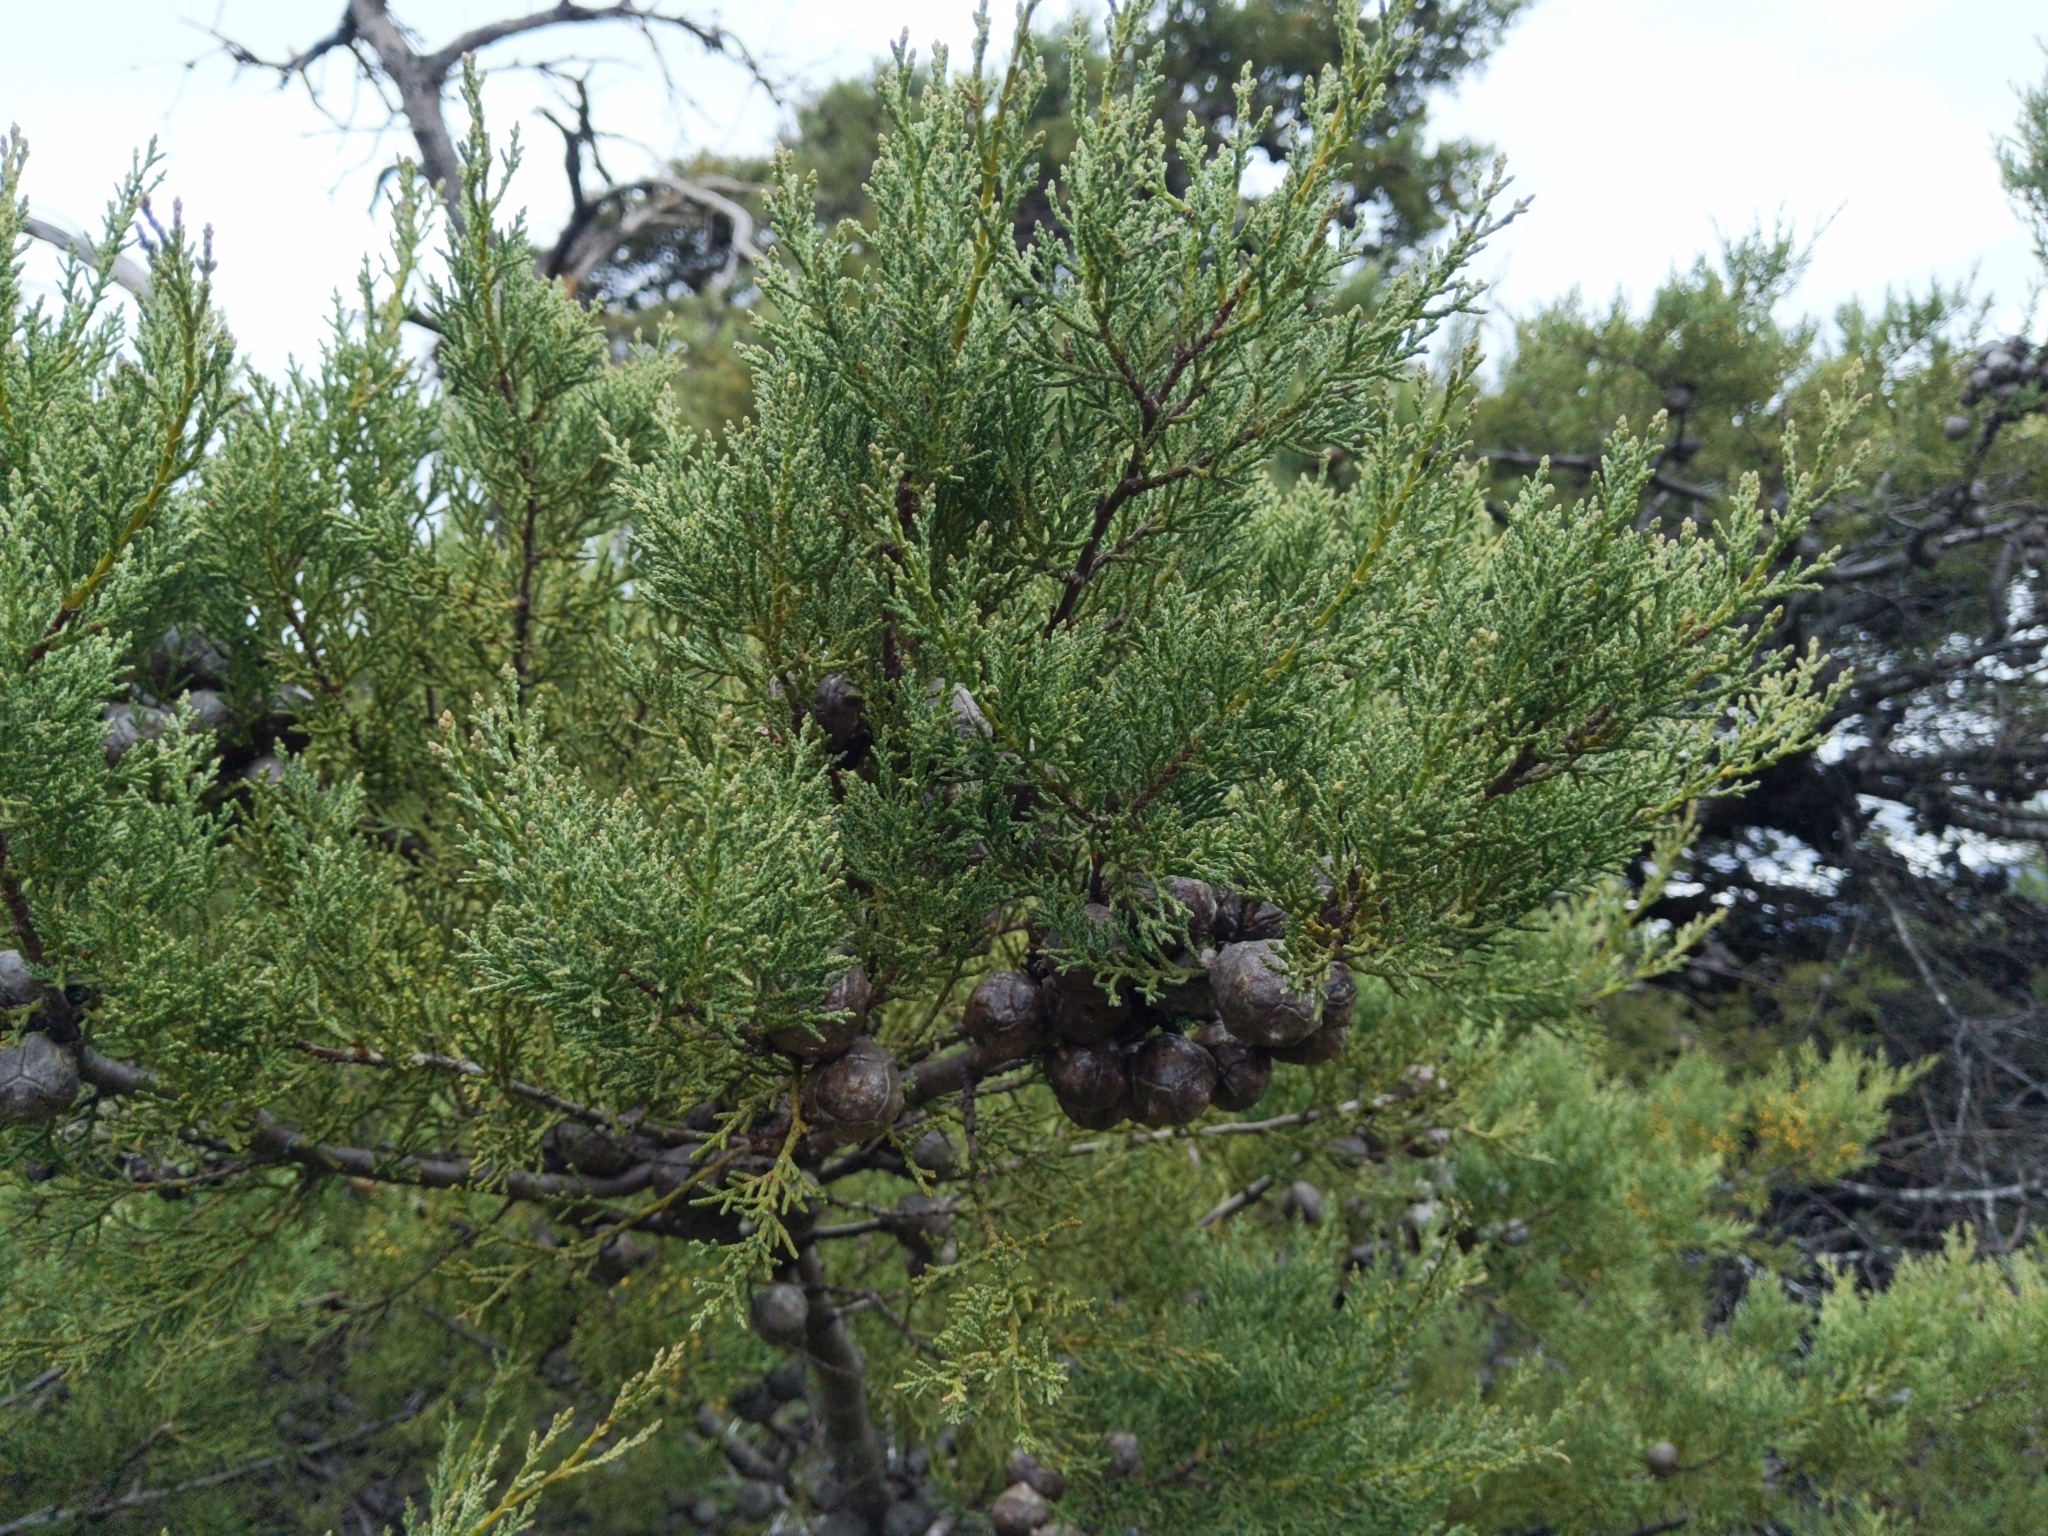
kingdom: Plantae
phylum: Tracheophyta
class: Pinopsida
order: Pinales
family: Cupressaceae
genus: Cupressus
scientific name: Cupressus sargentii
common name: Sargent cypress
